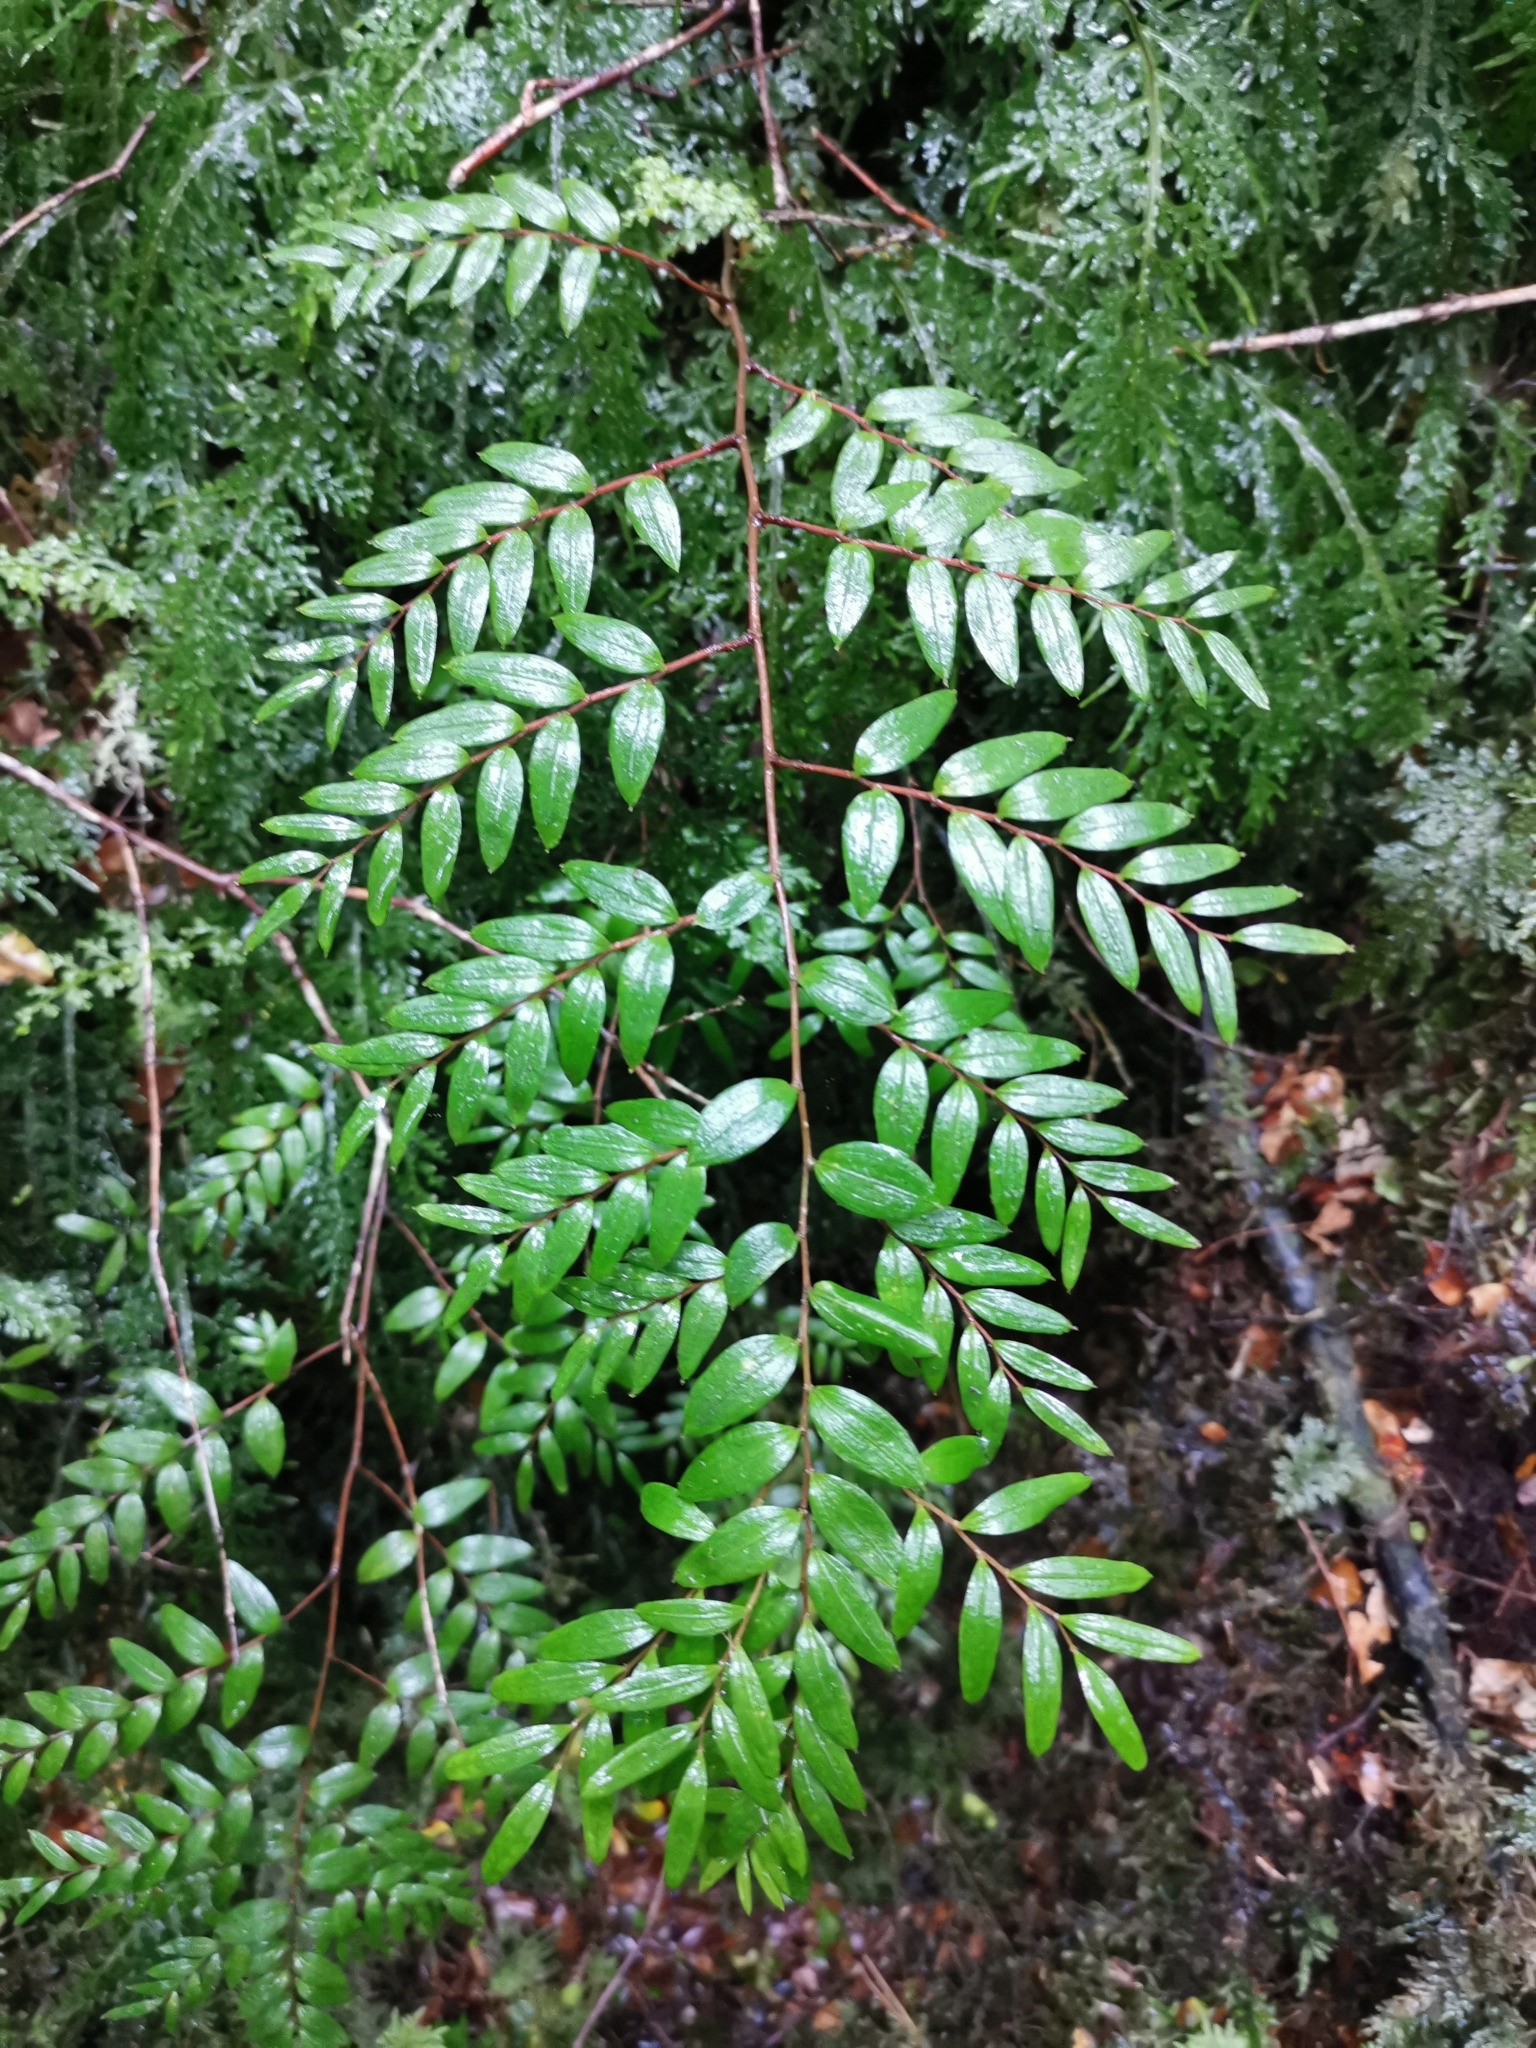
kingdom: Plantae
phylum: Tracheophyta
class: Liliopsida
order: Liliales
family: Alstroemeriaceae
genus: Luzuriaga
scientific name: Luzuriaga polyphylla
